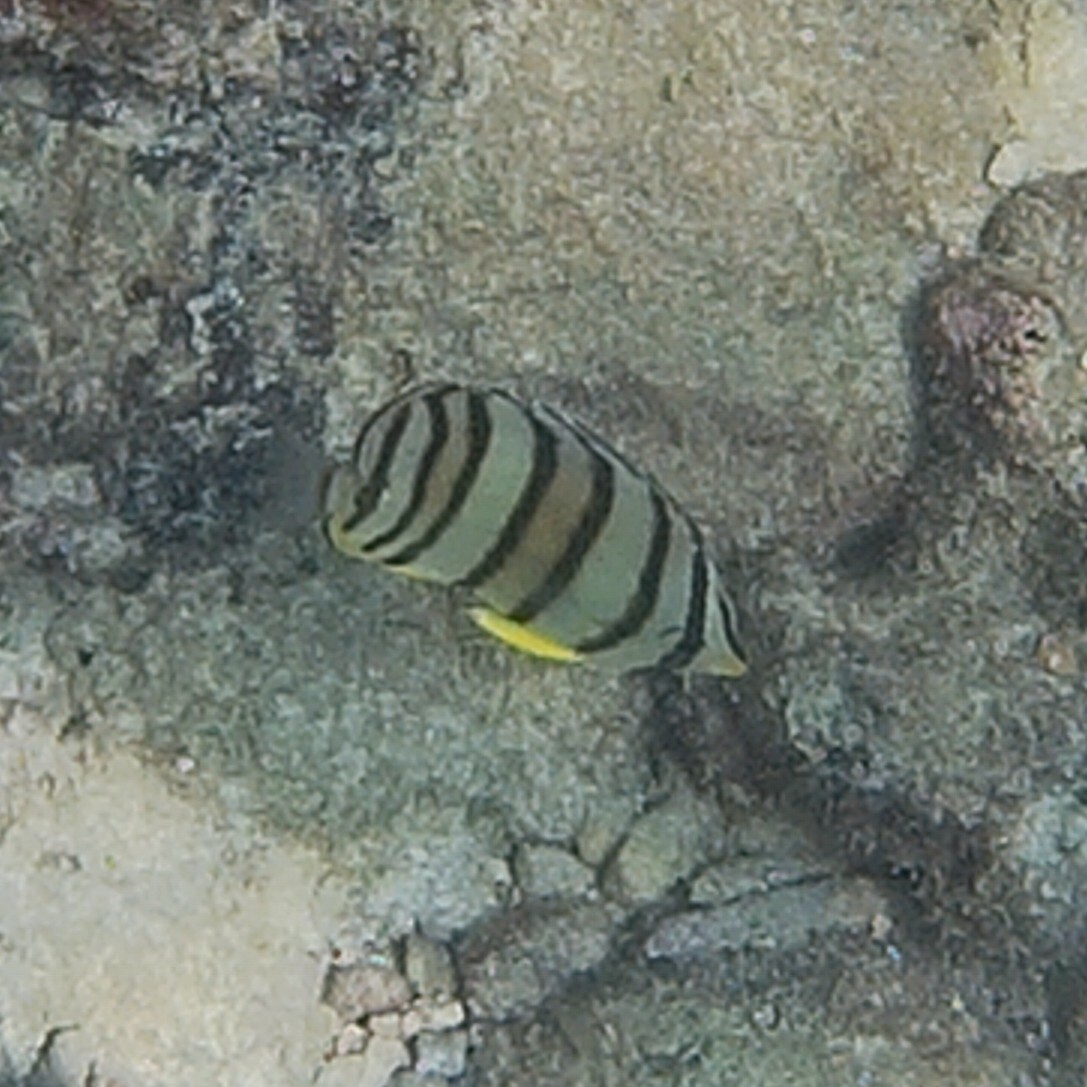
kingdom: Animalia
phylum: Chordata
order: Perciformes
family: Chaetodontidae
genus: Chaetodon
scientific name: Chaetodon octofasciatus
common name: Eightband butterflyfish
